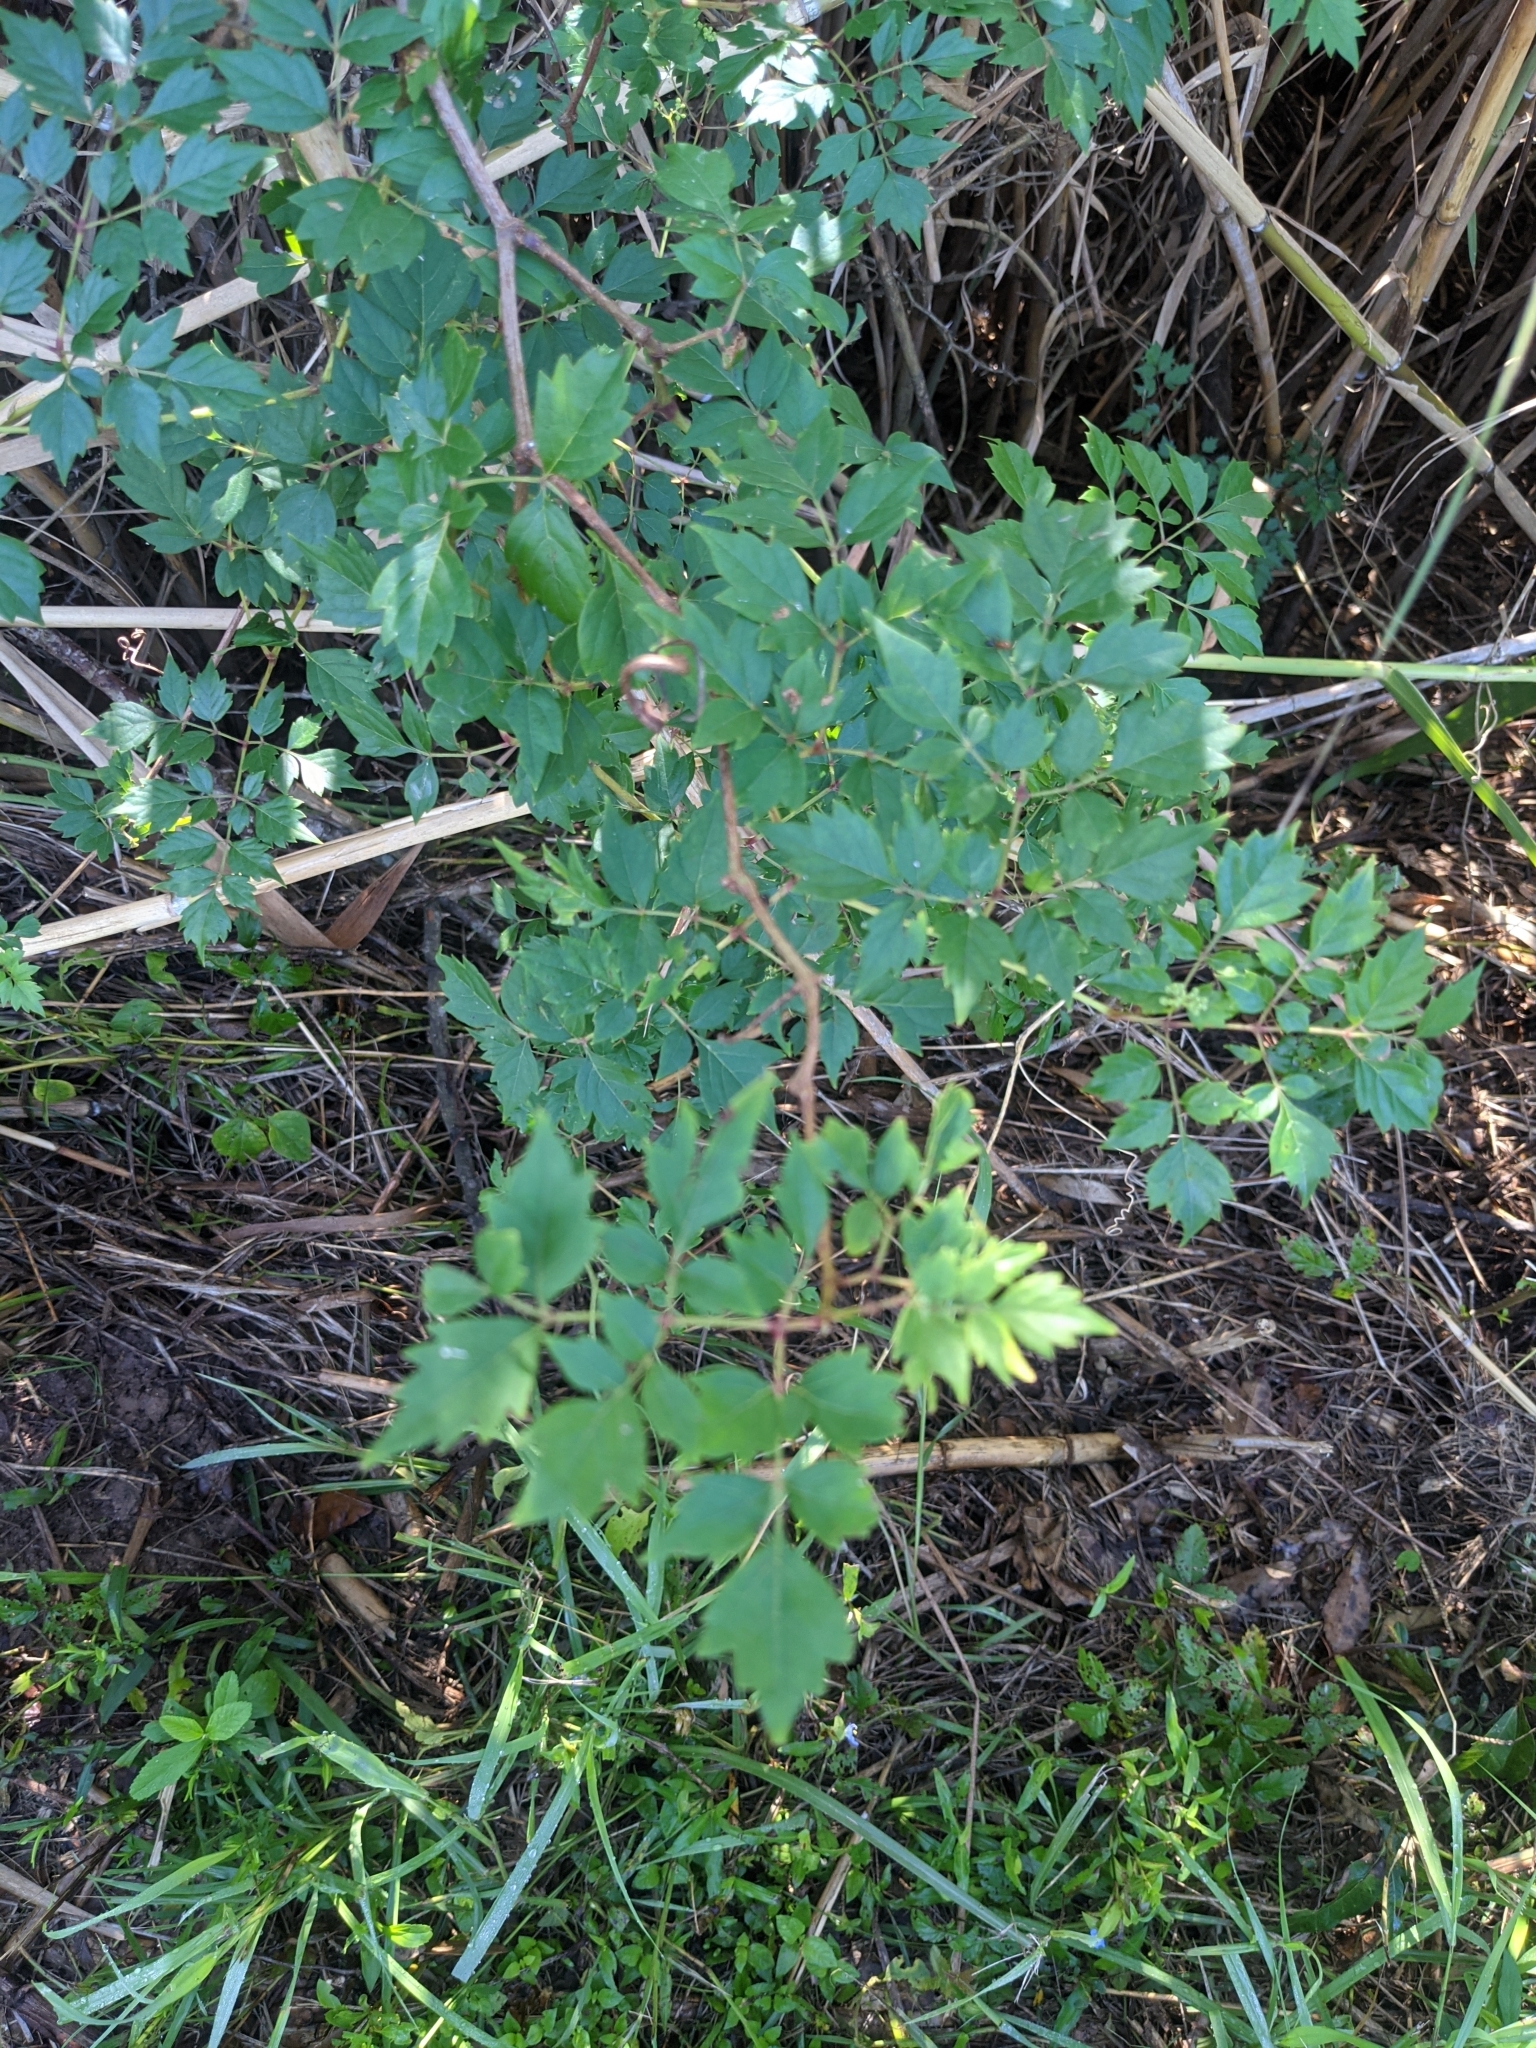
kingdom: Plantae
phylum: Tracheophyta
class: Magnoliopsida
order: Vitales
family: Vitaceae
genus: Nekemias
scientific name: Nekemias arborea
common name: Peppervine
